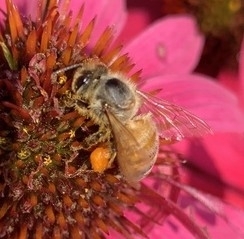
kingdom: Animalia
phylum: Arthropoda
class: Insecta
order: Hymenoptera
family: Apidae
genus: Apis
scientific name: Apis mellifera
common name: Honey bee
